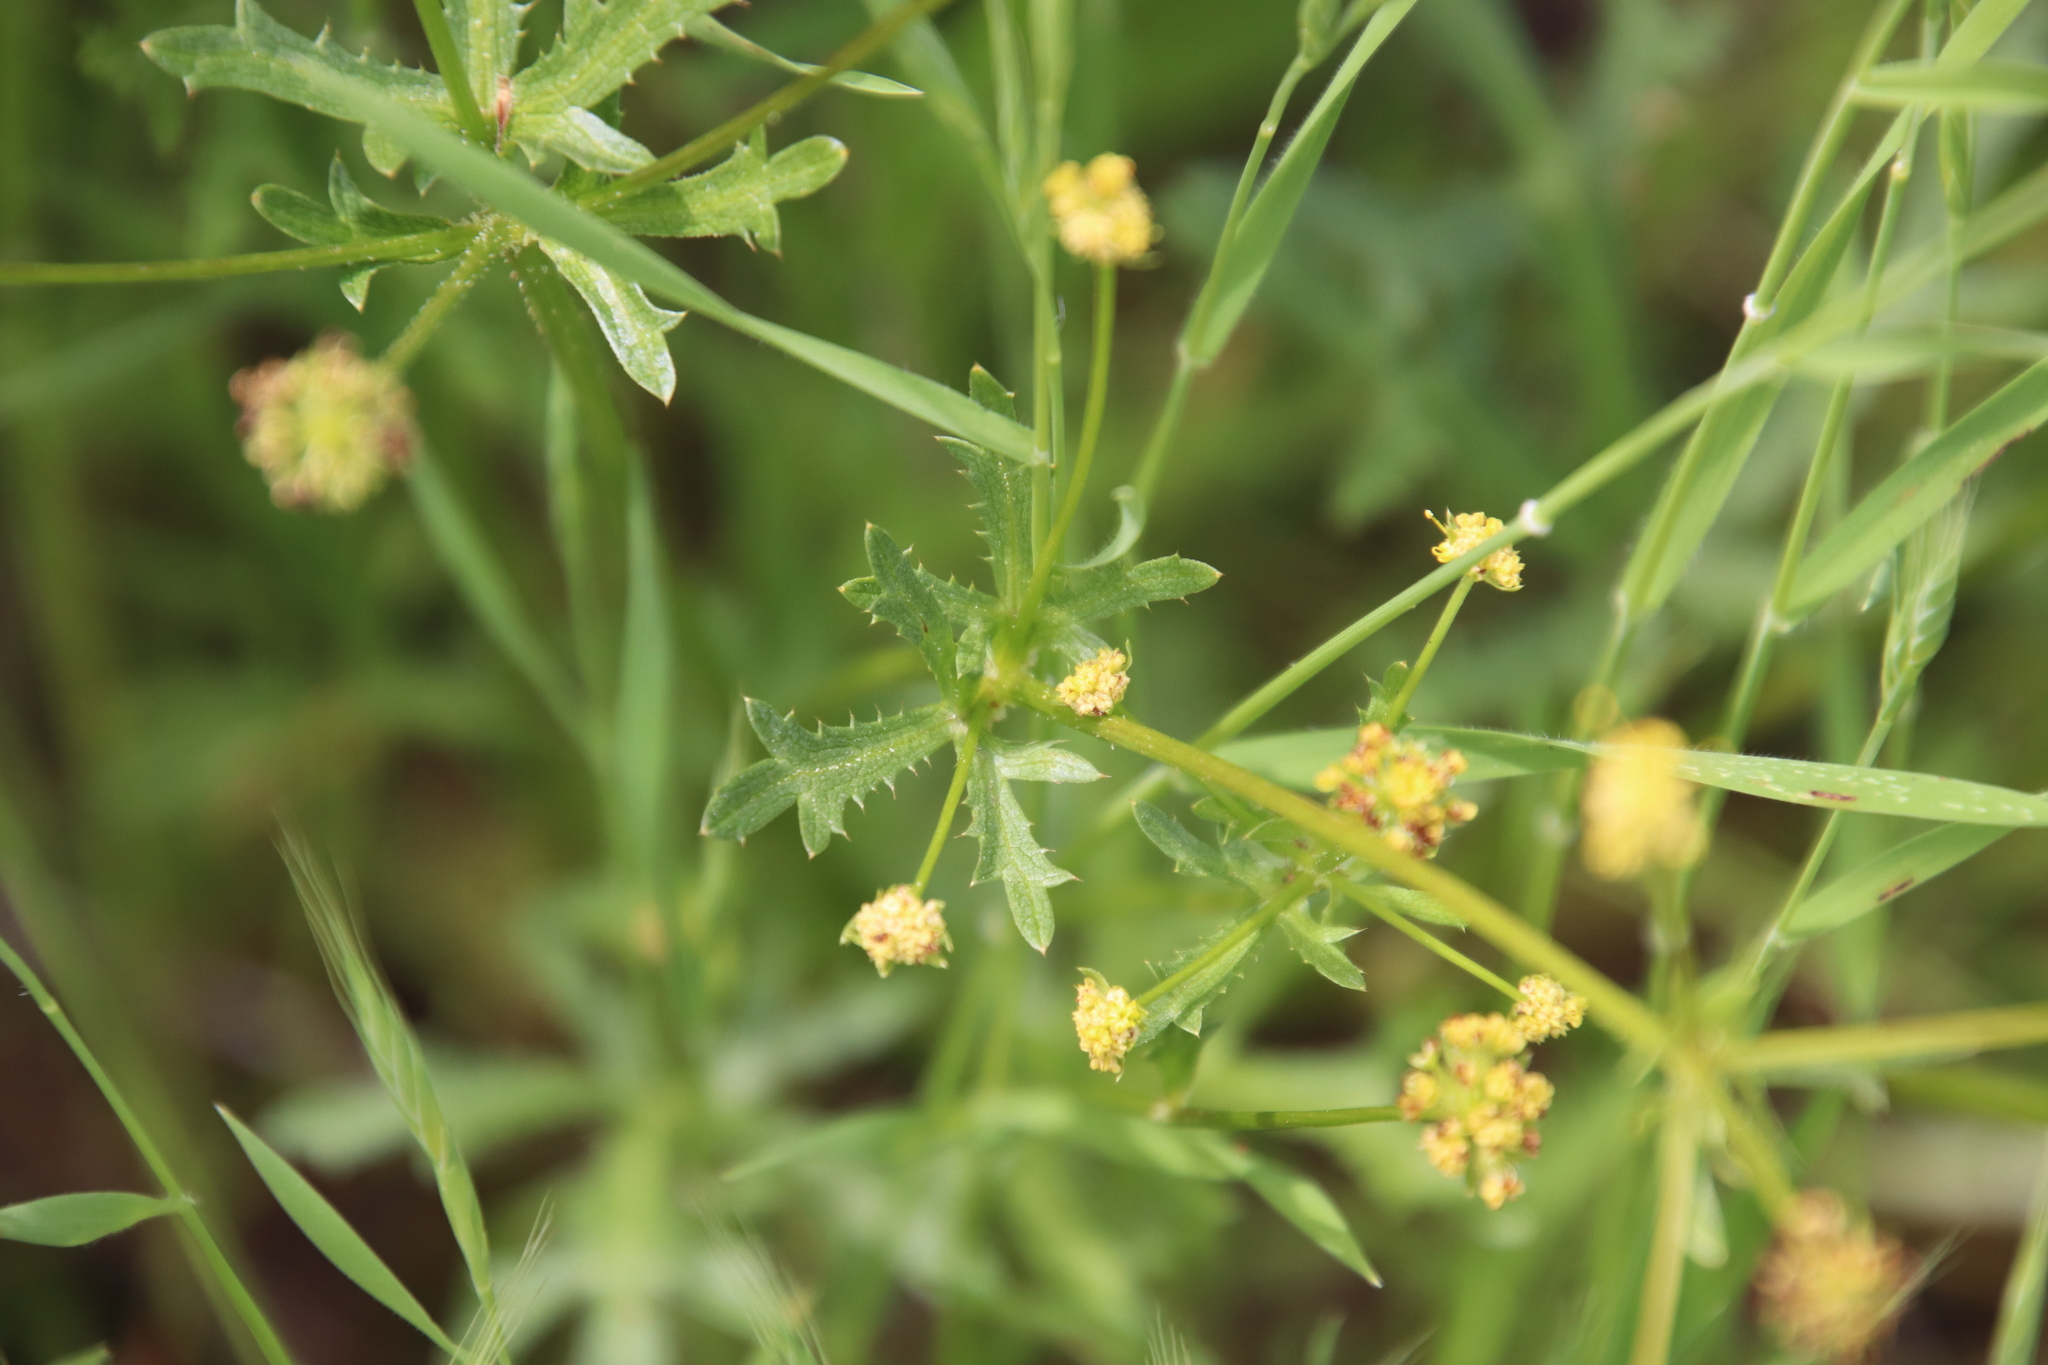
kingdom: Plantae
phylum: Tracheophyta
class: Magnoliopsida
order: Apiales
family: Apiaceae
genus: Sanicula
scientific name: Sanicula arguta
